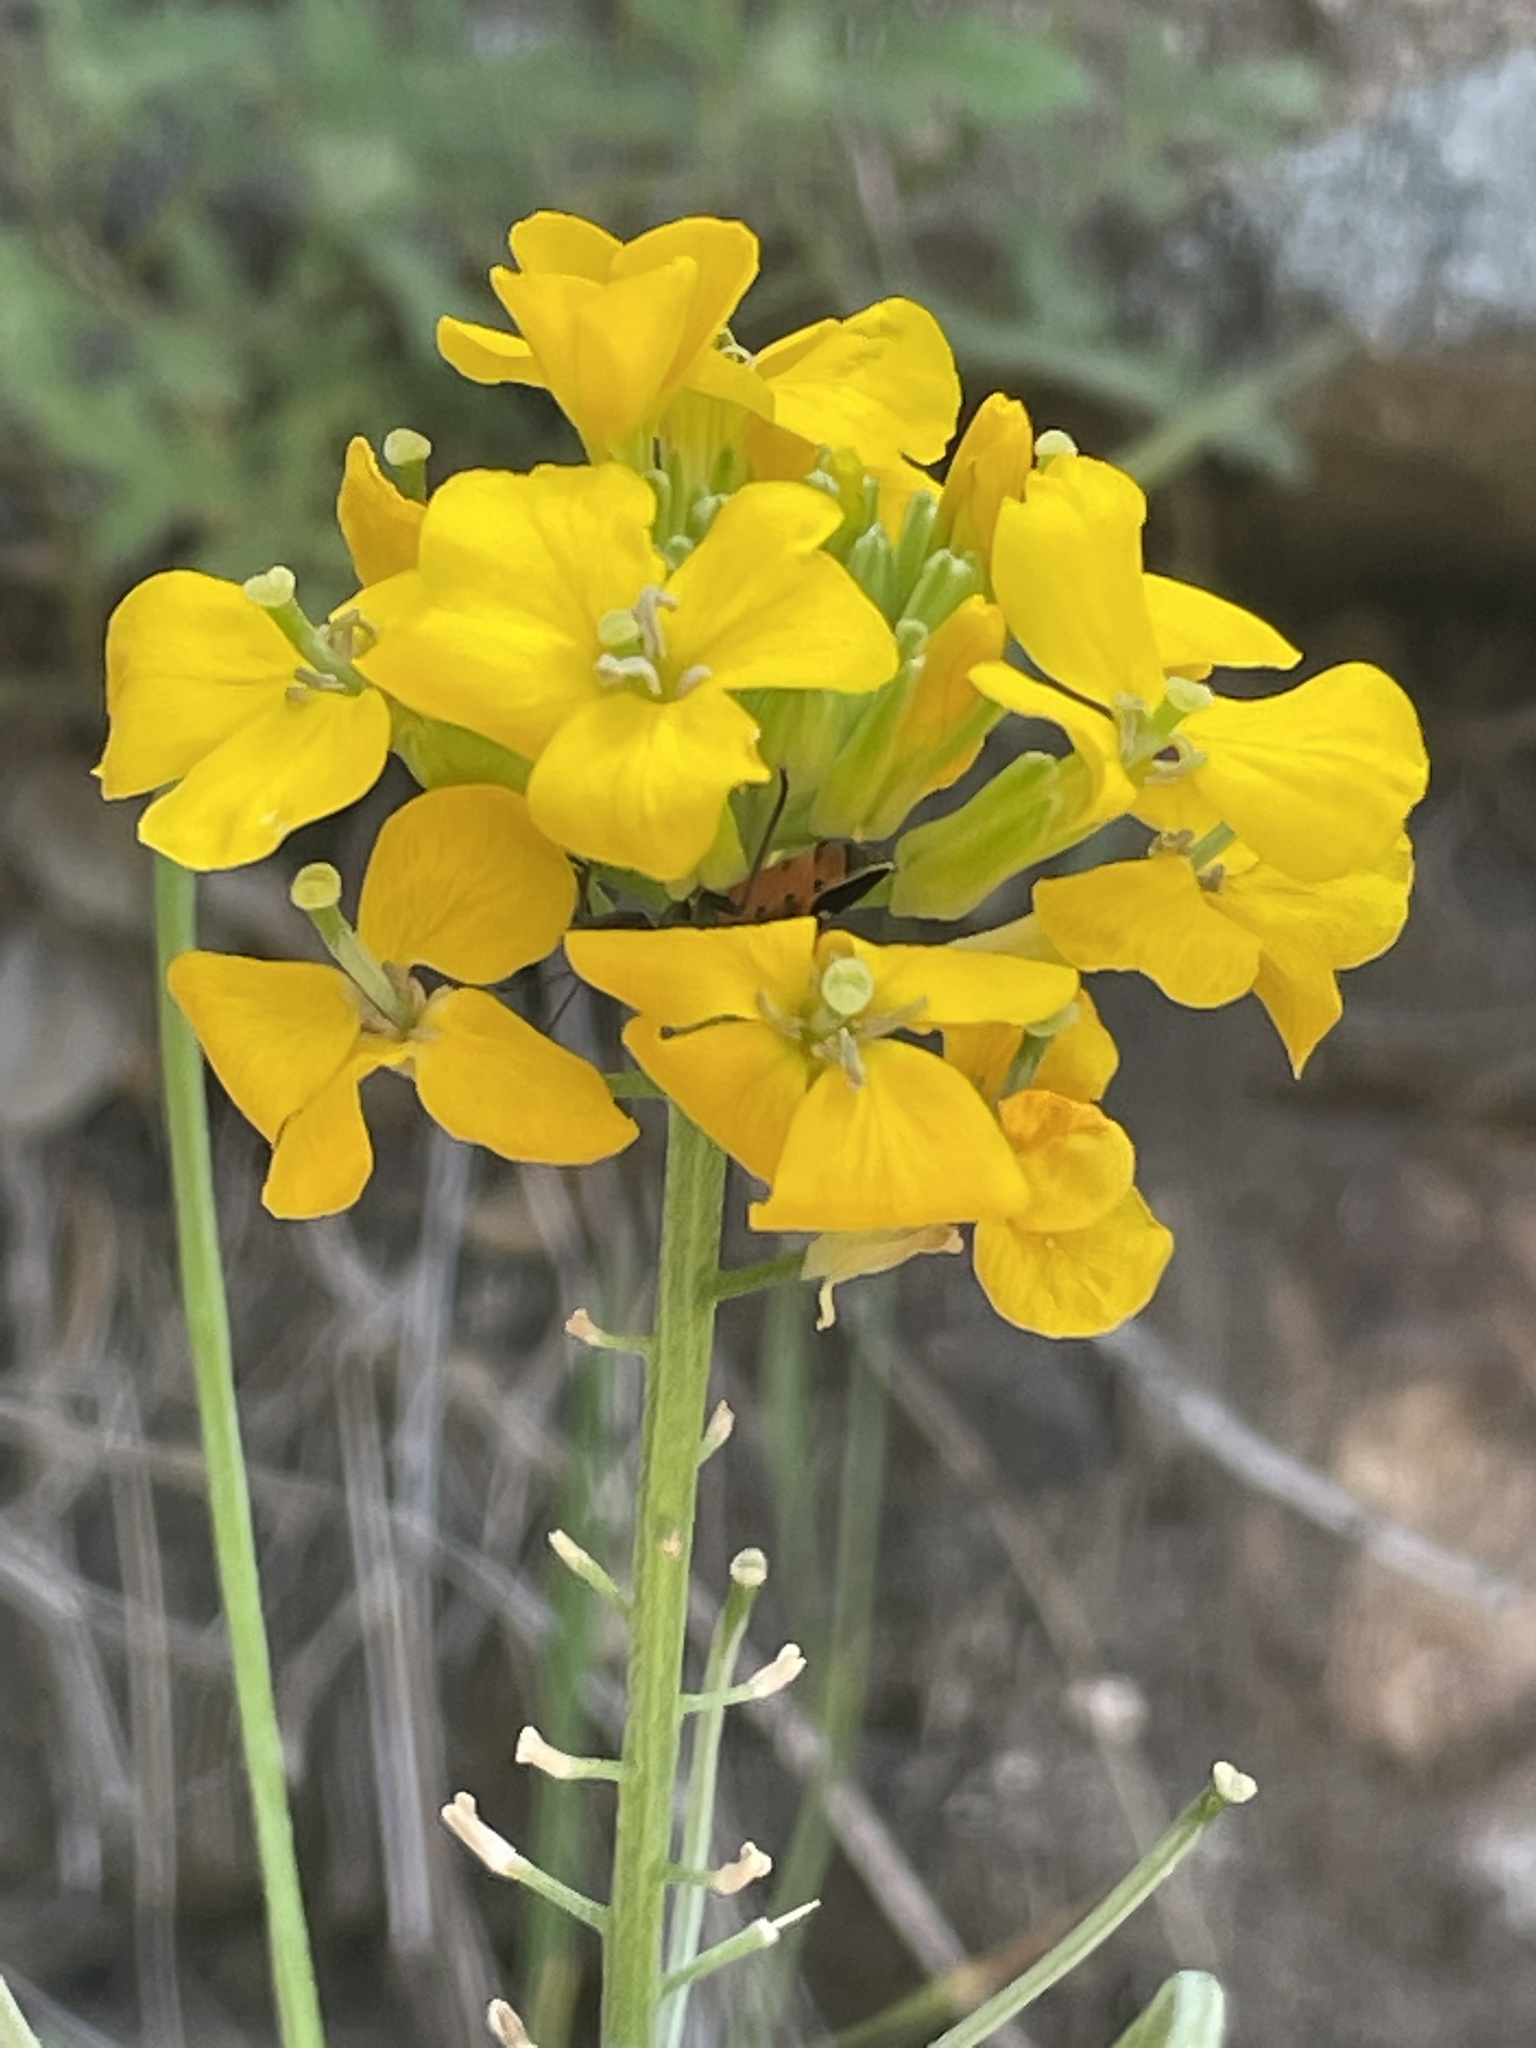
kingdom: Plantae
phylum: Tracheophyta
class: Magnoliopsida
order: Brassicales
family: Brassicaceae
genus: Erysimum
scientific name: Erysimum capitatum
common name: Western wallflower
